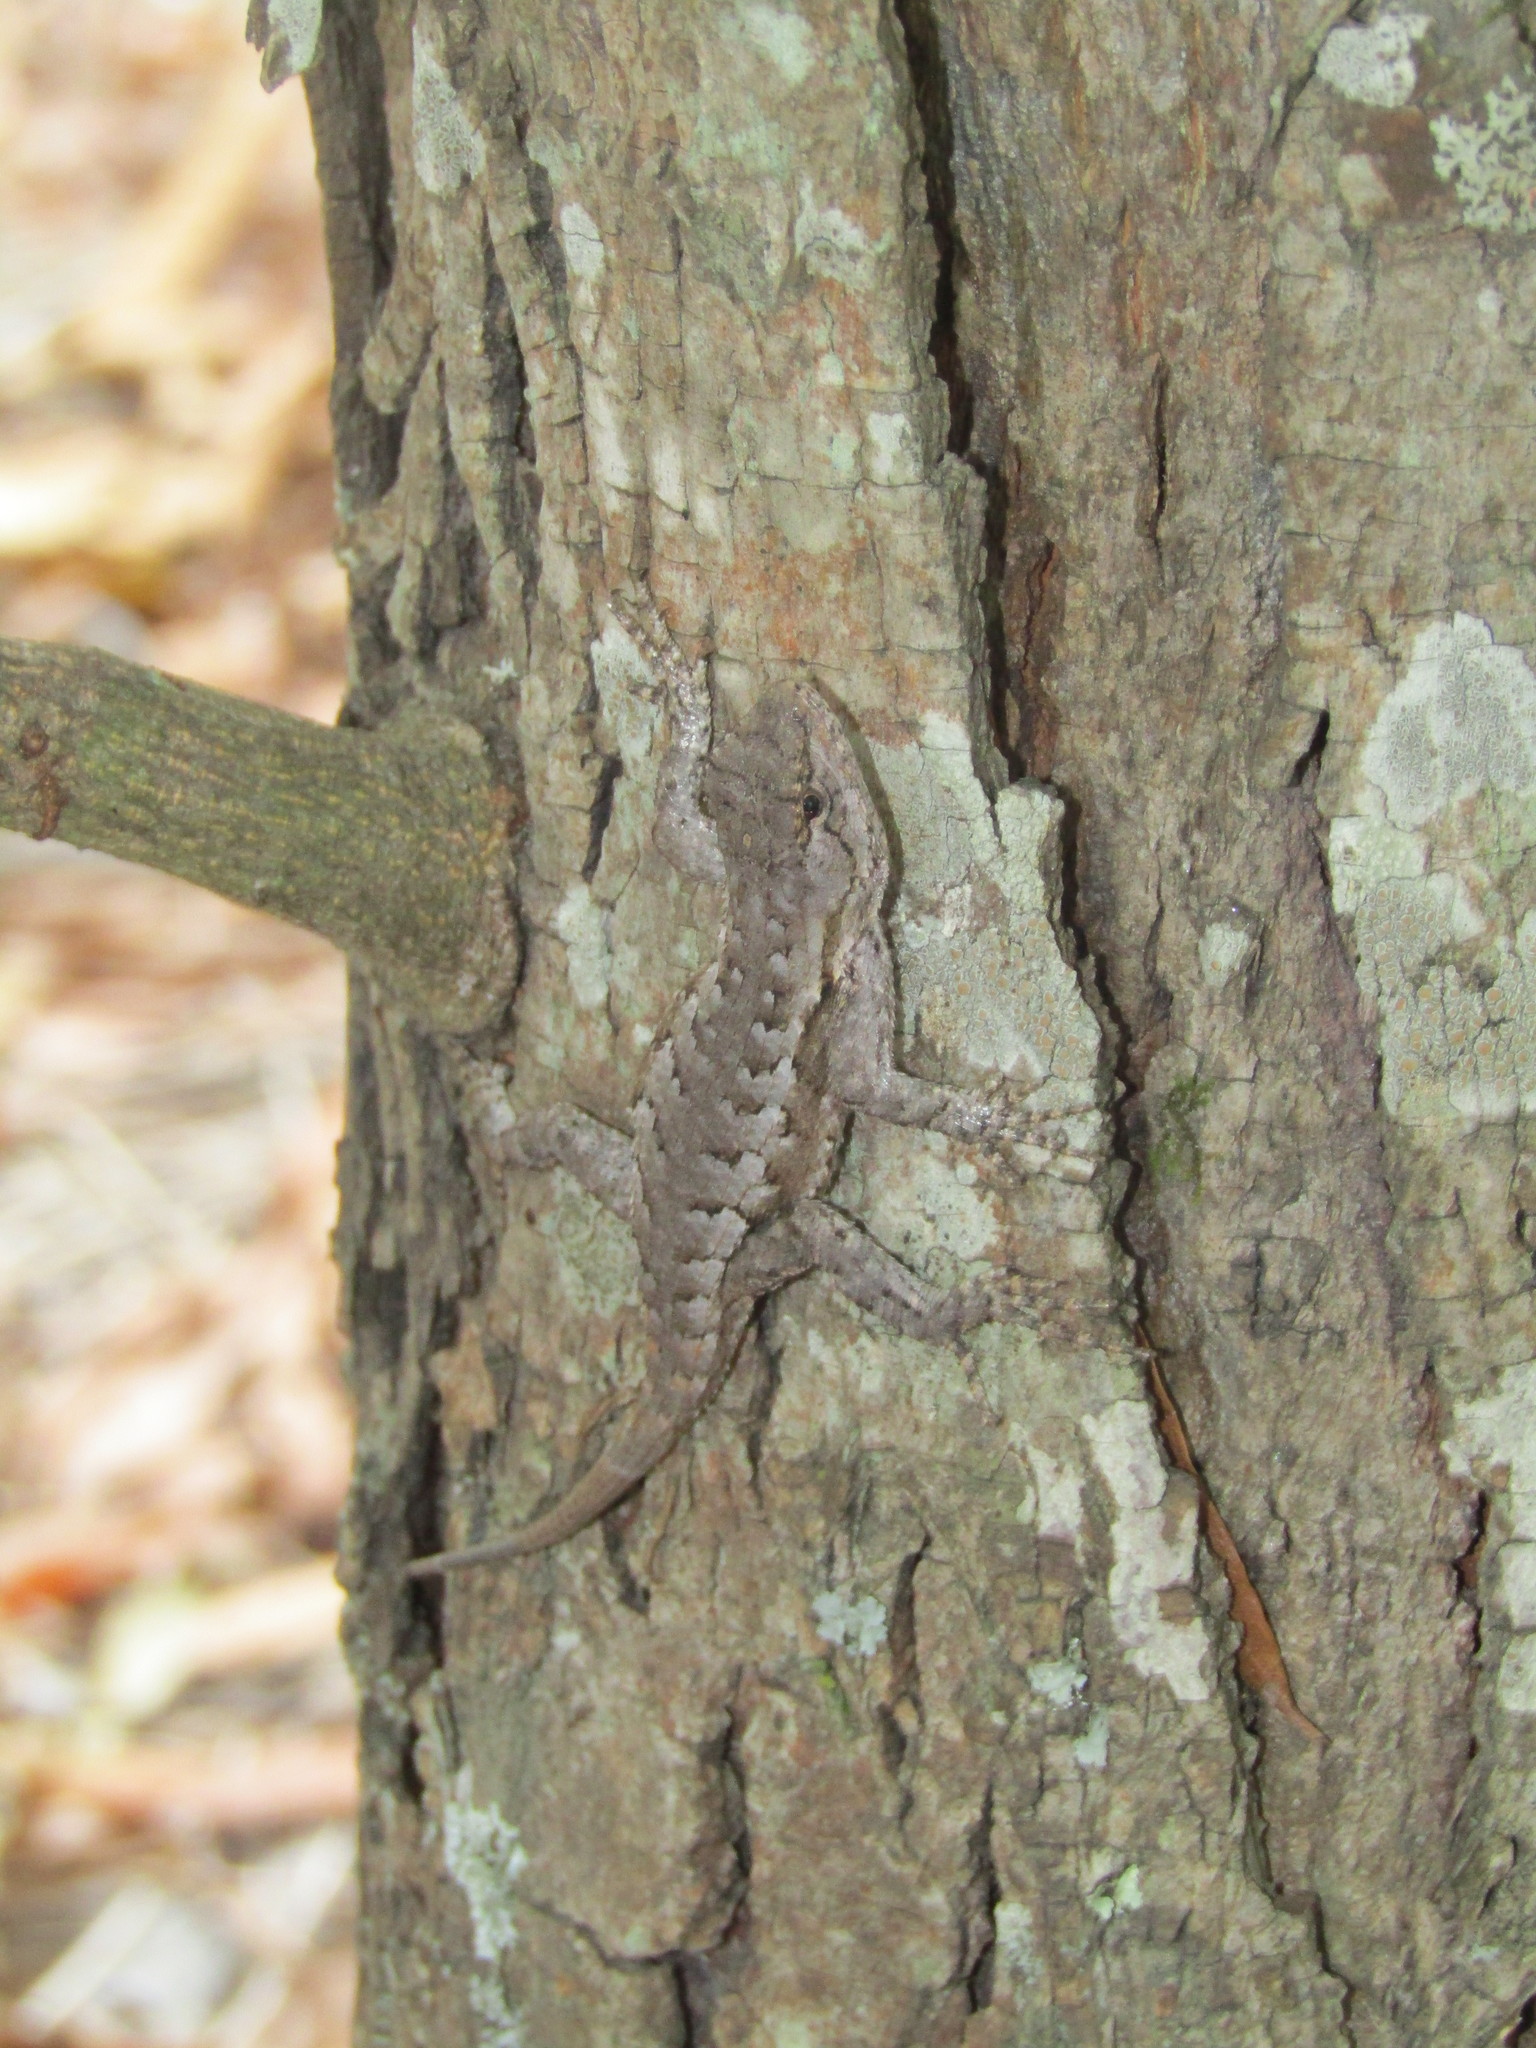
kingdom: Animalia
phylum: Chordata
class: Squamata
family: Phrynosomatidae
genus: Sceloporus
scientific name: Sceloporus undulatus
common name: Eastern fence lizard
